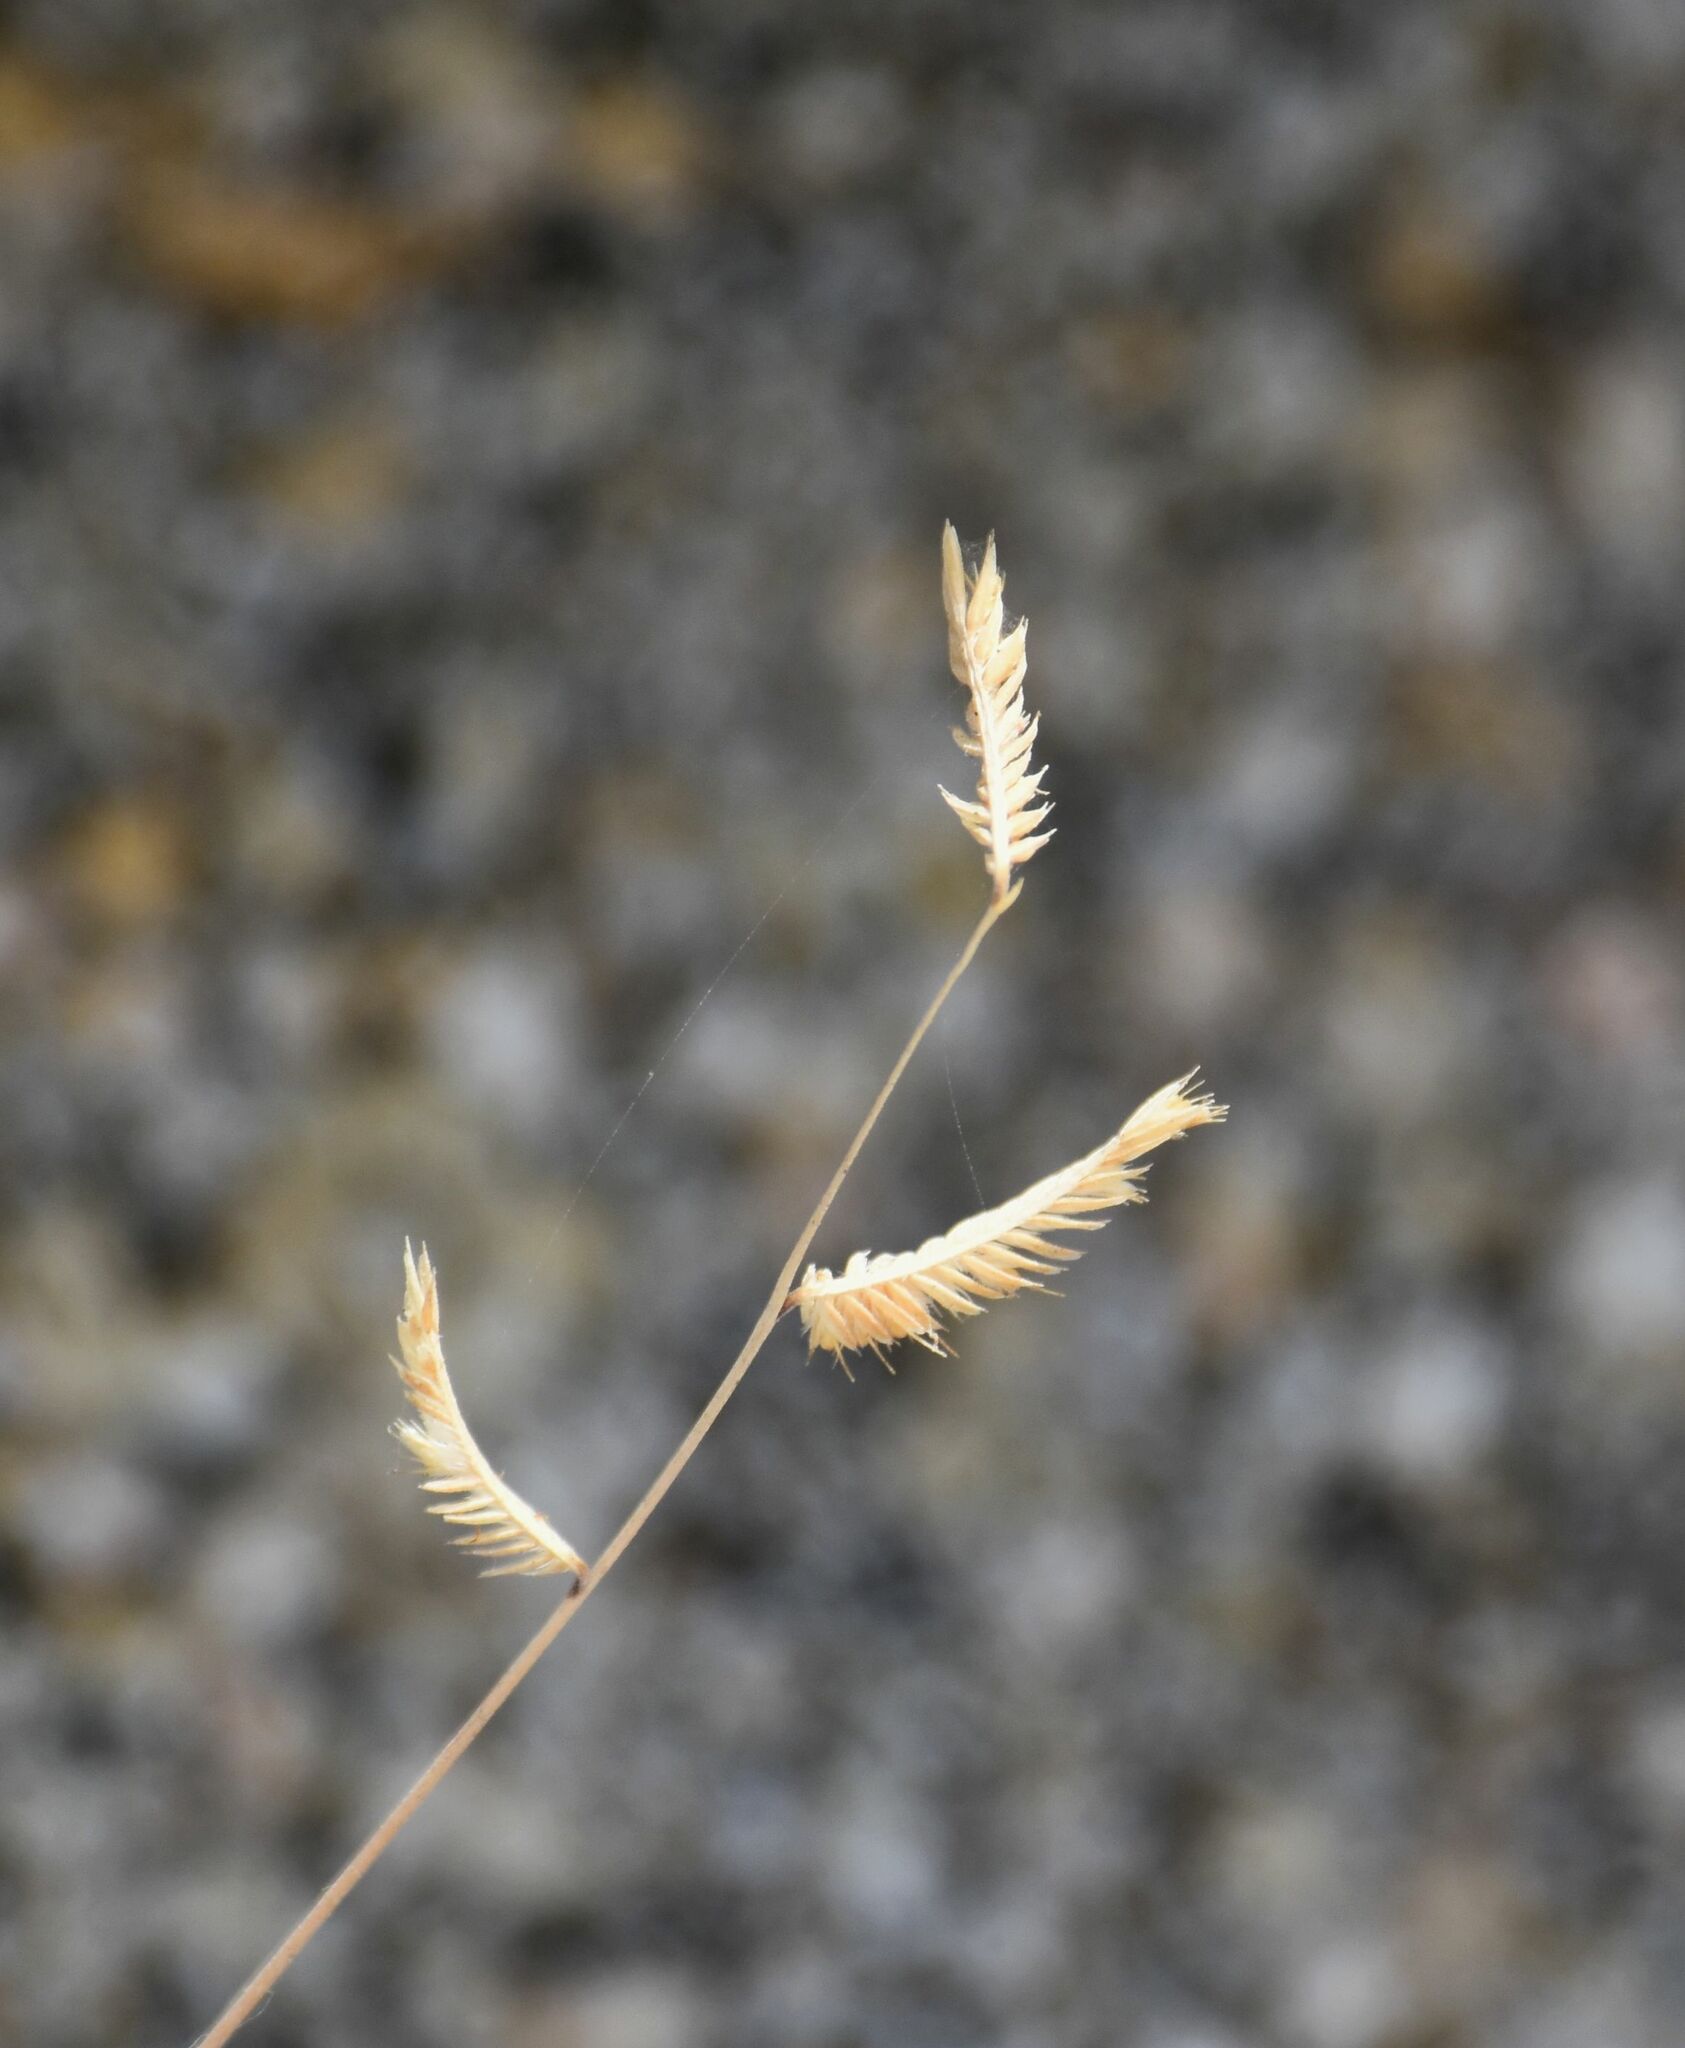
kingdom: Plantae
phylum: Tracheophyta
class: Liliopsida
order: Poales
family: Poaceae
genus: Bouteloua
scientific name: Bouteloua barbata
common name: Six-weeks grama
